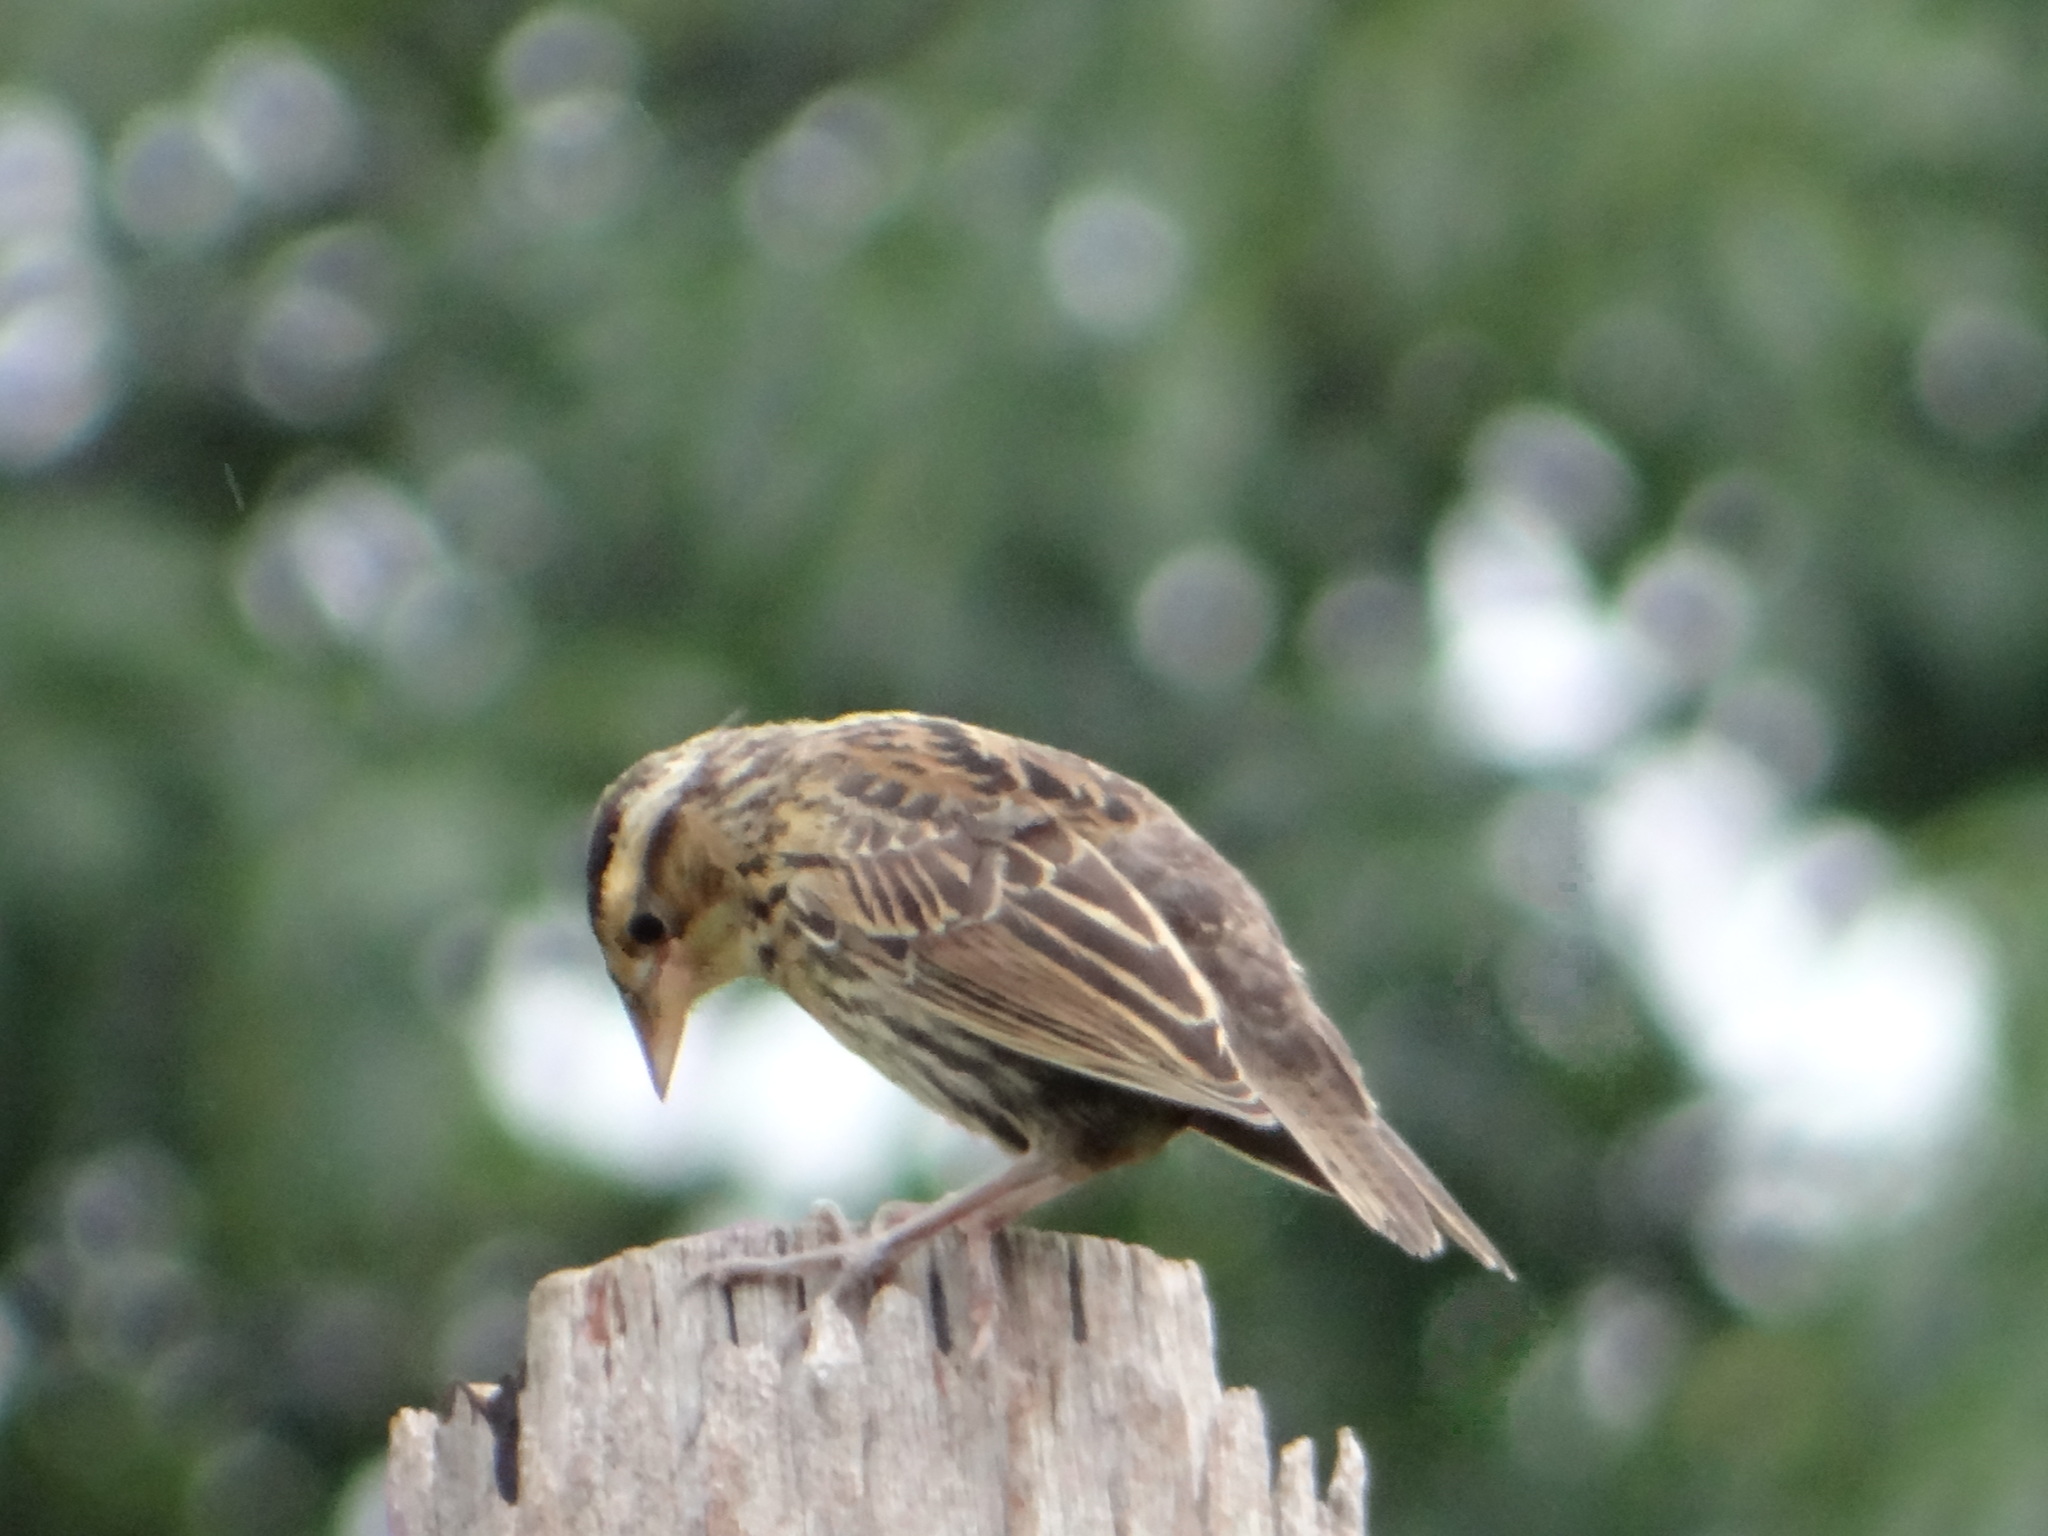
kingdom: Animalia
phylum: Chordata
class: Aves
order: Passeriformes
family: Icteridae
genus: Sturnella
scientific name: Sturnella militaris
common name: Red-breasted blackbird
